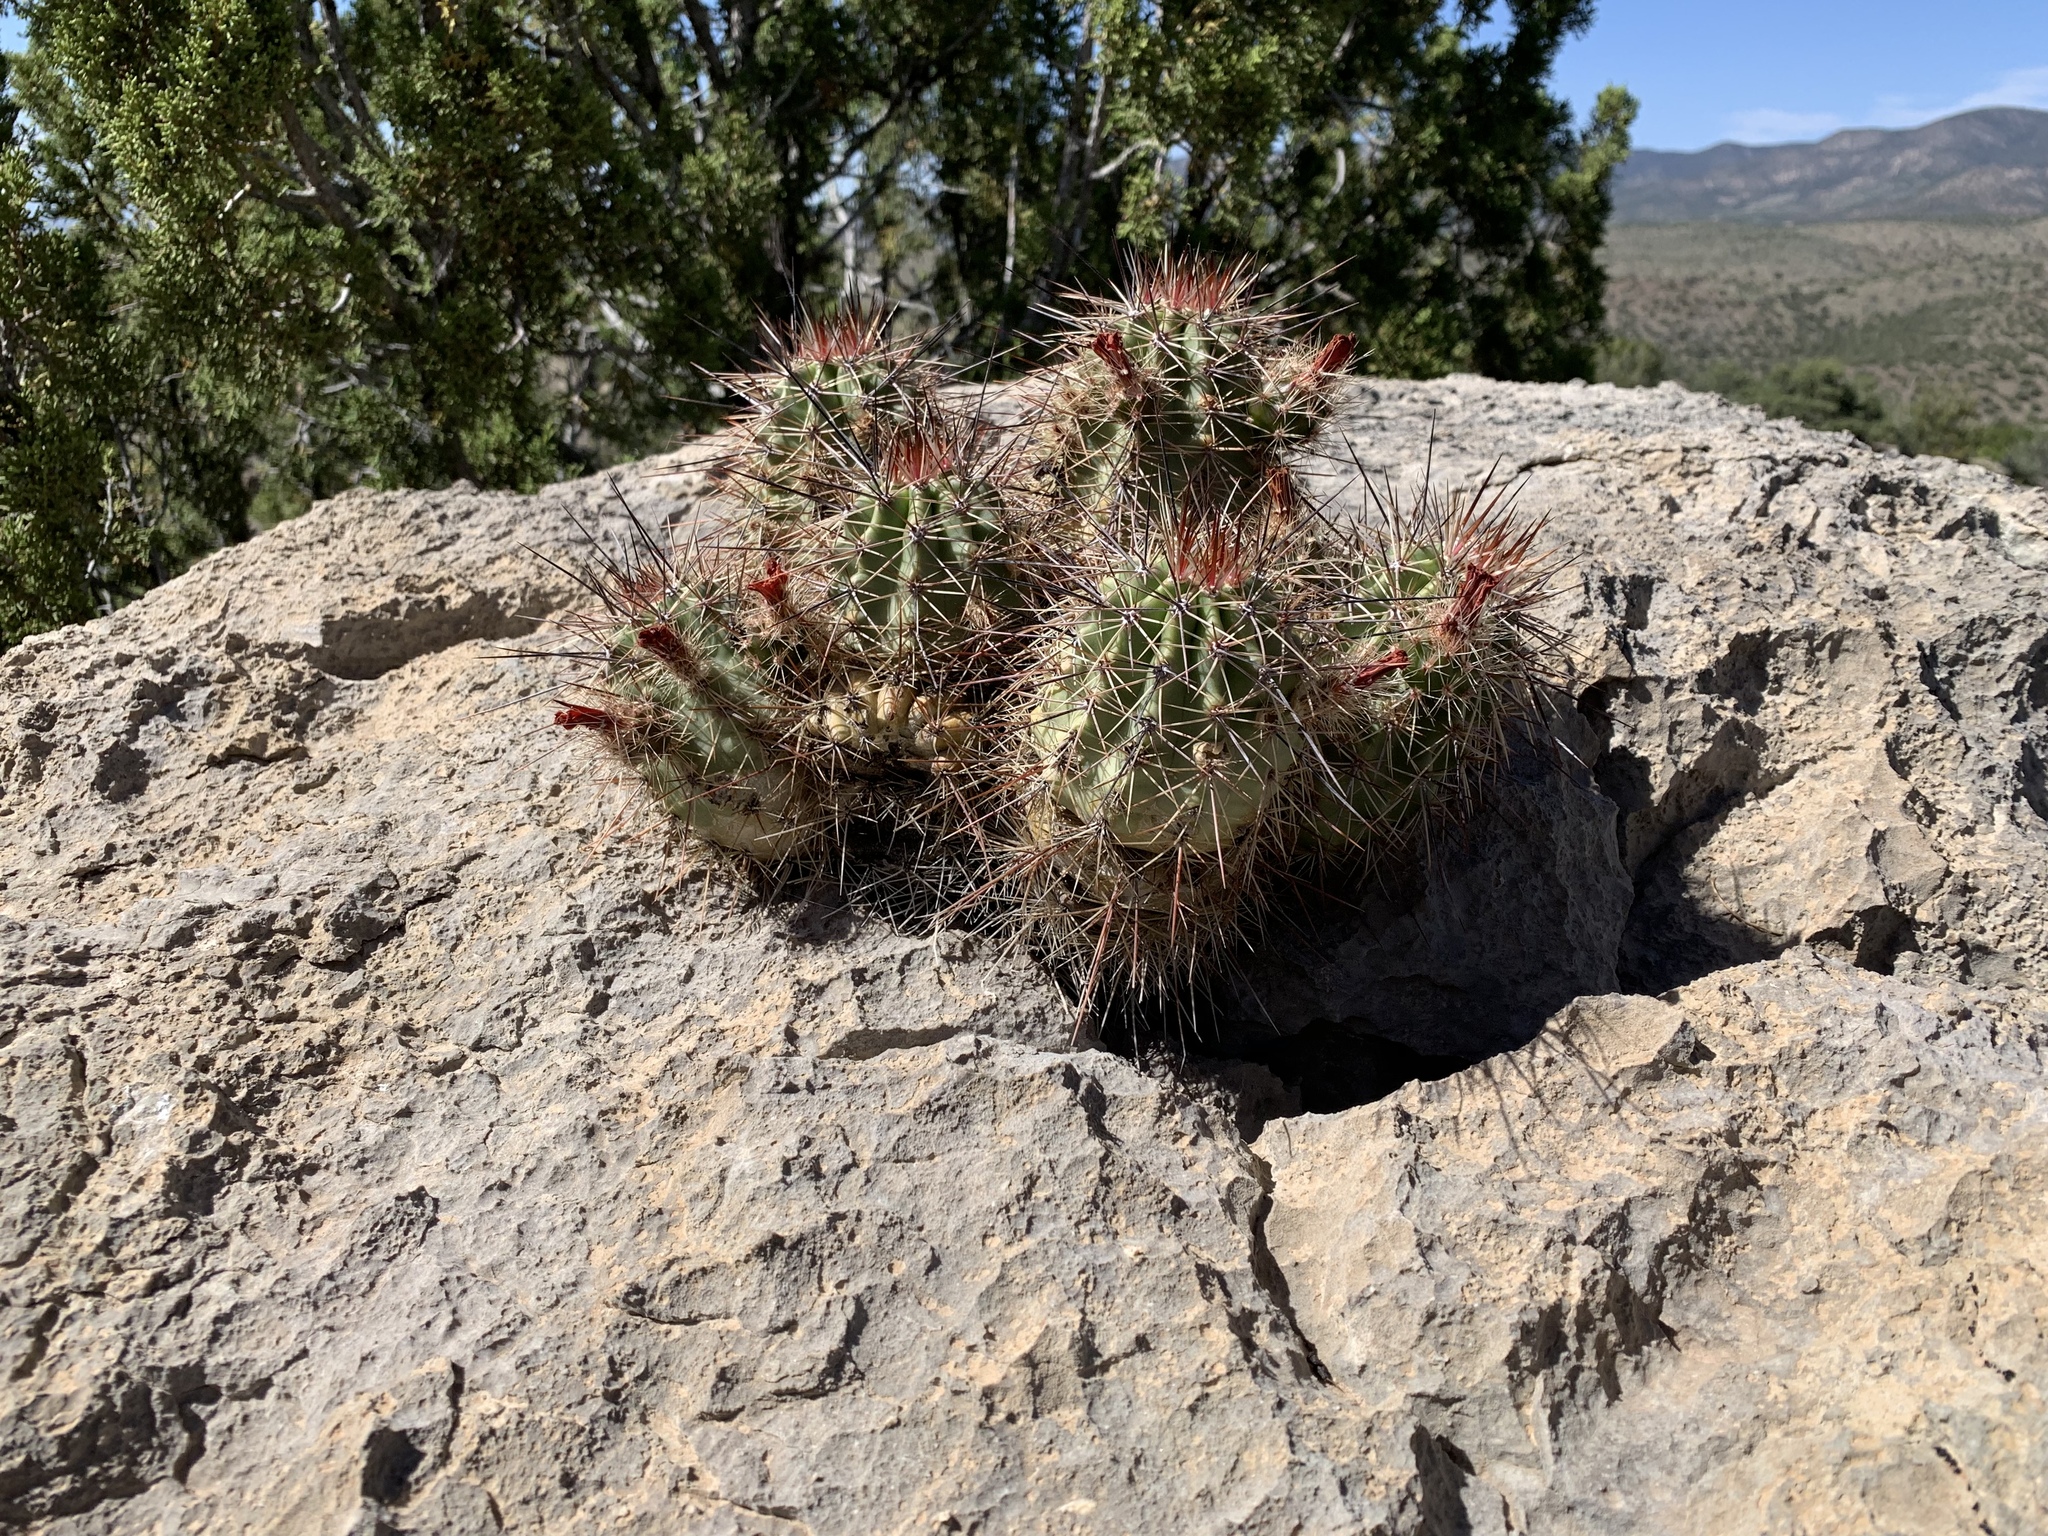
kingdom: Plantae
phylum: Tracheophyta
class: Magnoliopsida
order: Caryophyllales
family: Cactaceae
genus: Echinocereus
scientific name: Echinocereus coccineus
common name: Scarlet hedgehog cactus
